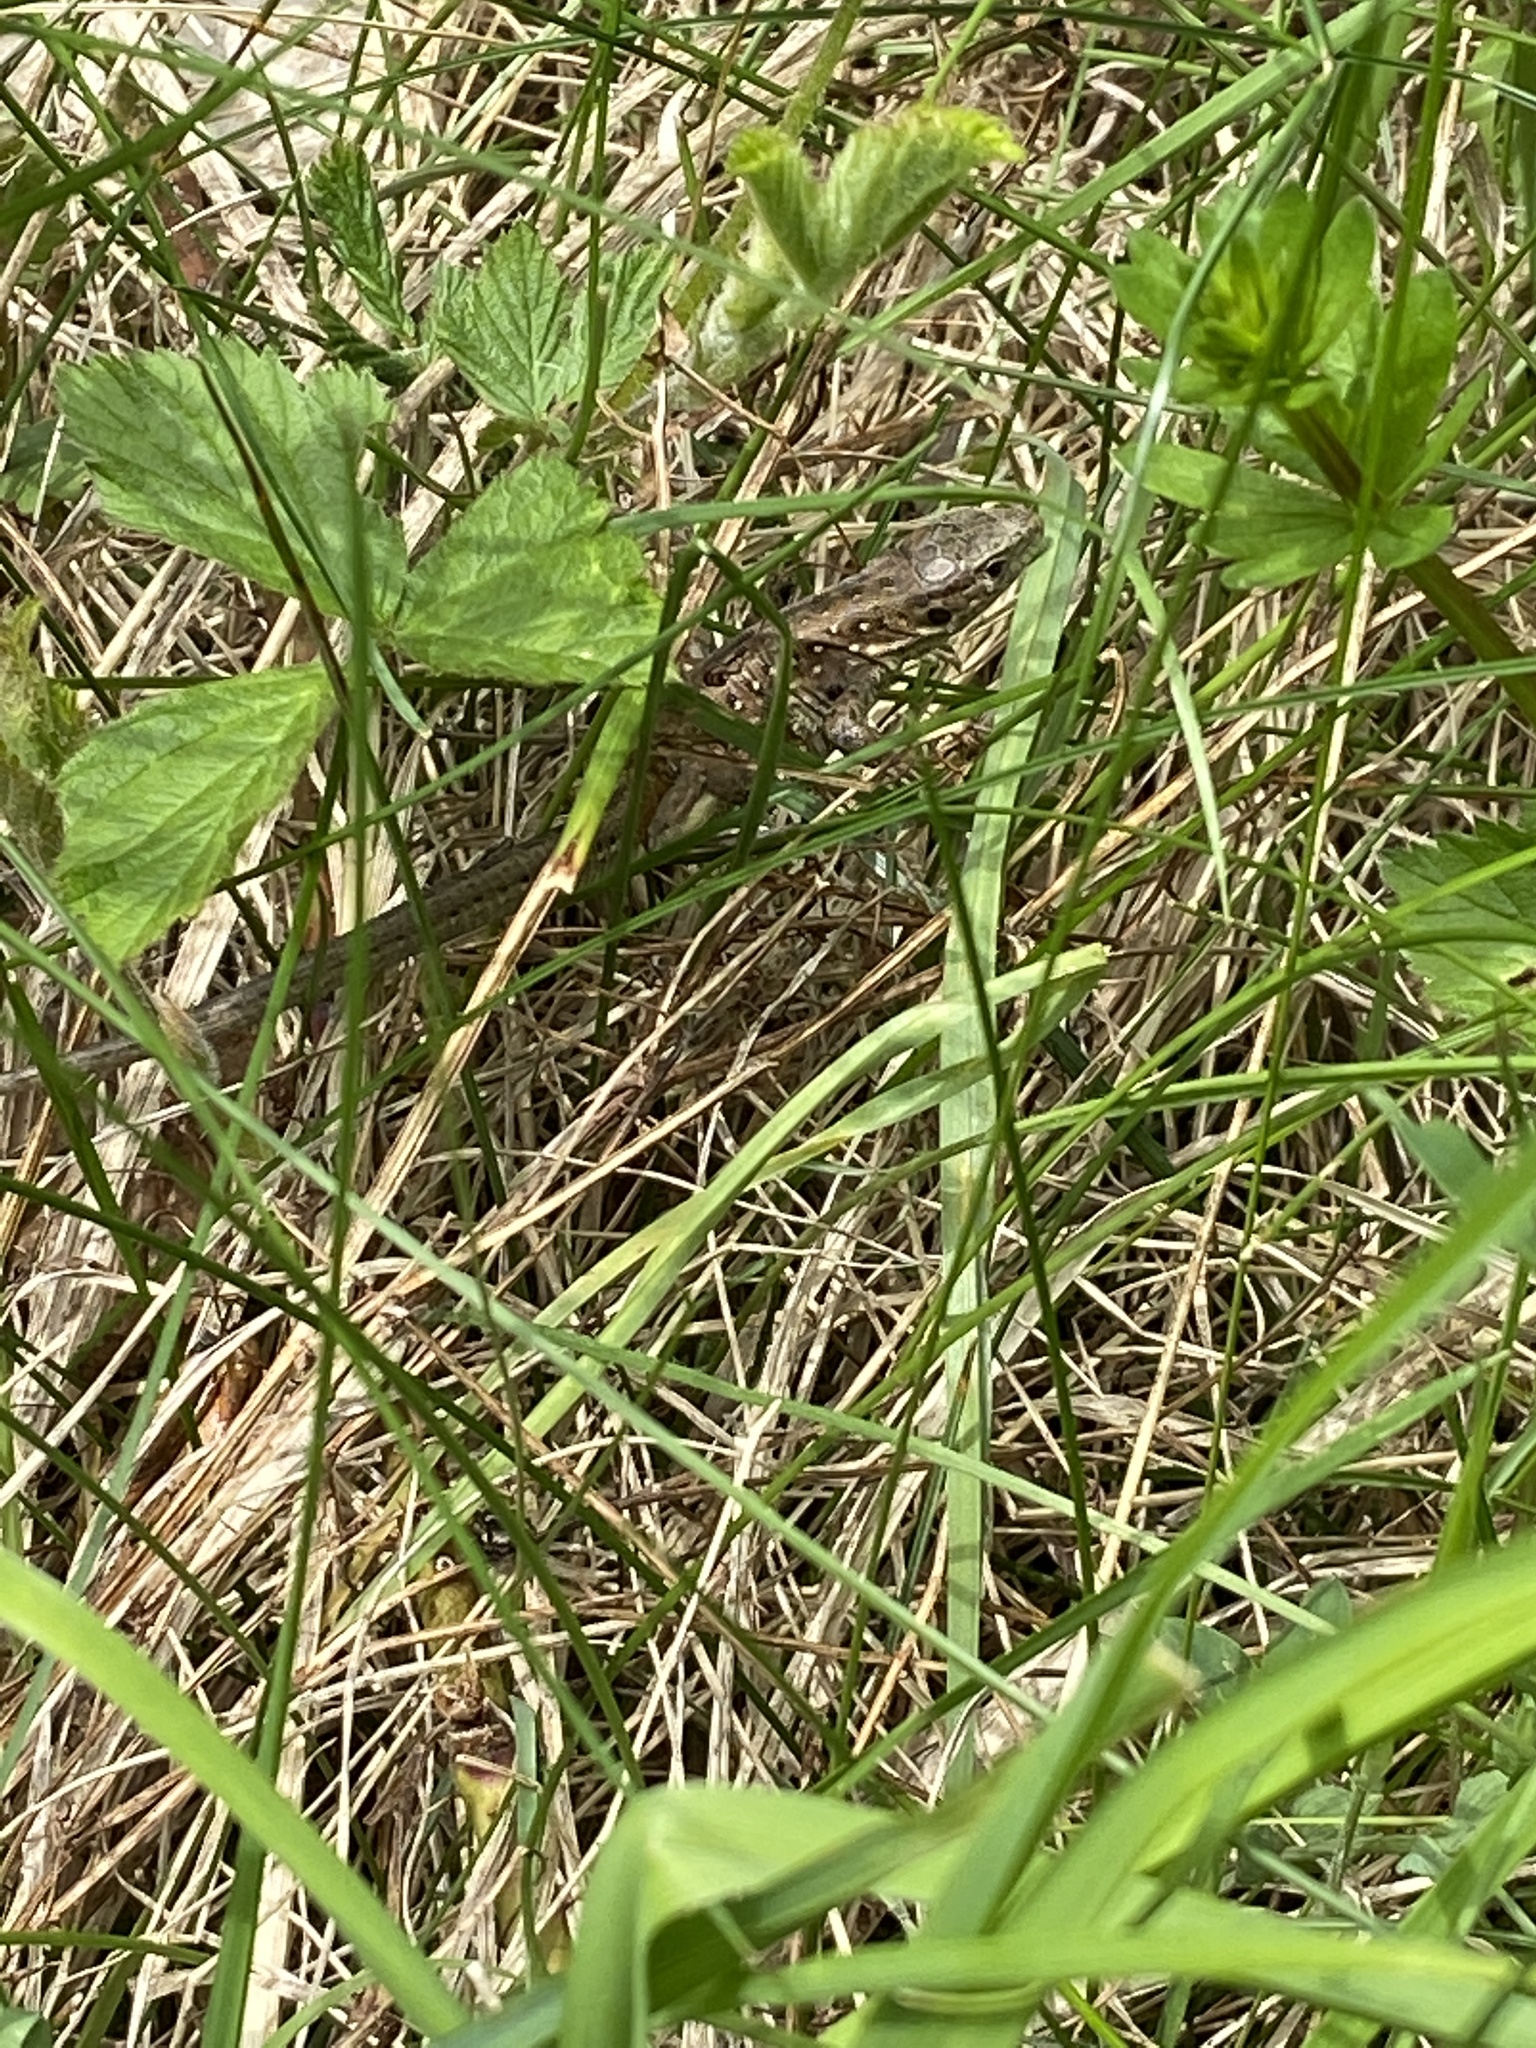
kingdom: Animalia
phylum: Chordata
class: Squamata
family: Lacertidae
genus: Lacerta
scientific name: Lacerta agilis
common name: Sand lizard
